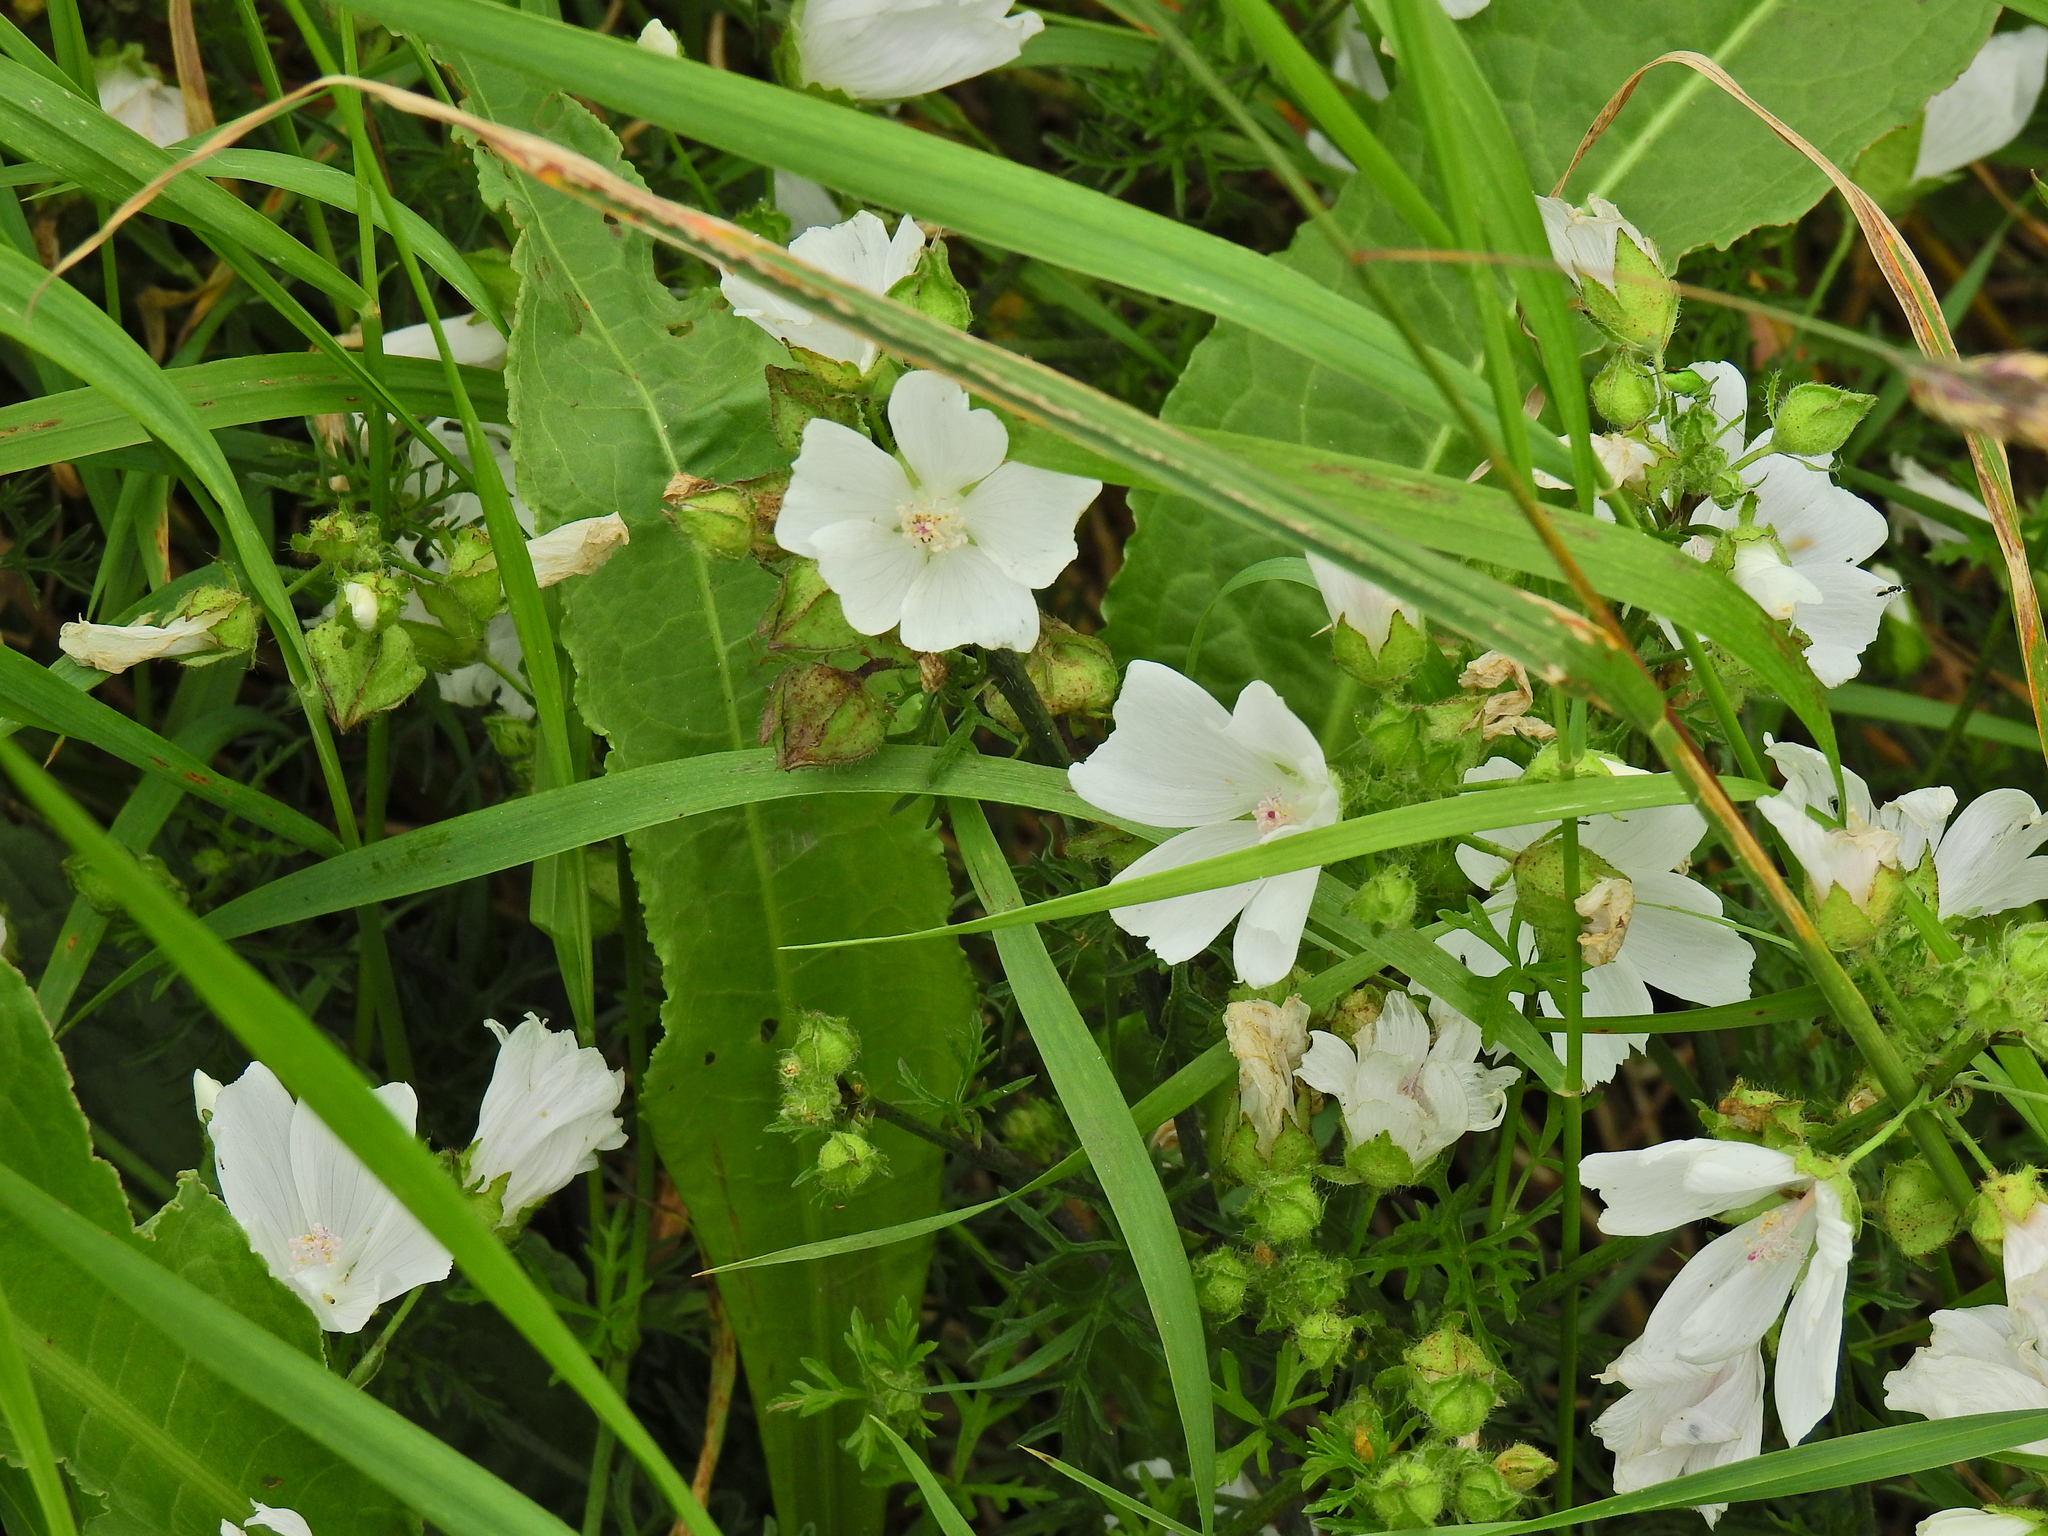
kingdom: Plantae
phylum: Tracheophyta
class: Magnoliopsida
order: Malvales
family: Malvaceae
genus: Malva
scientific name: Malva moschata
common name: Musk mallow
